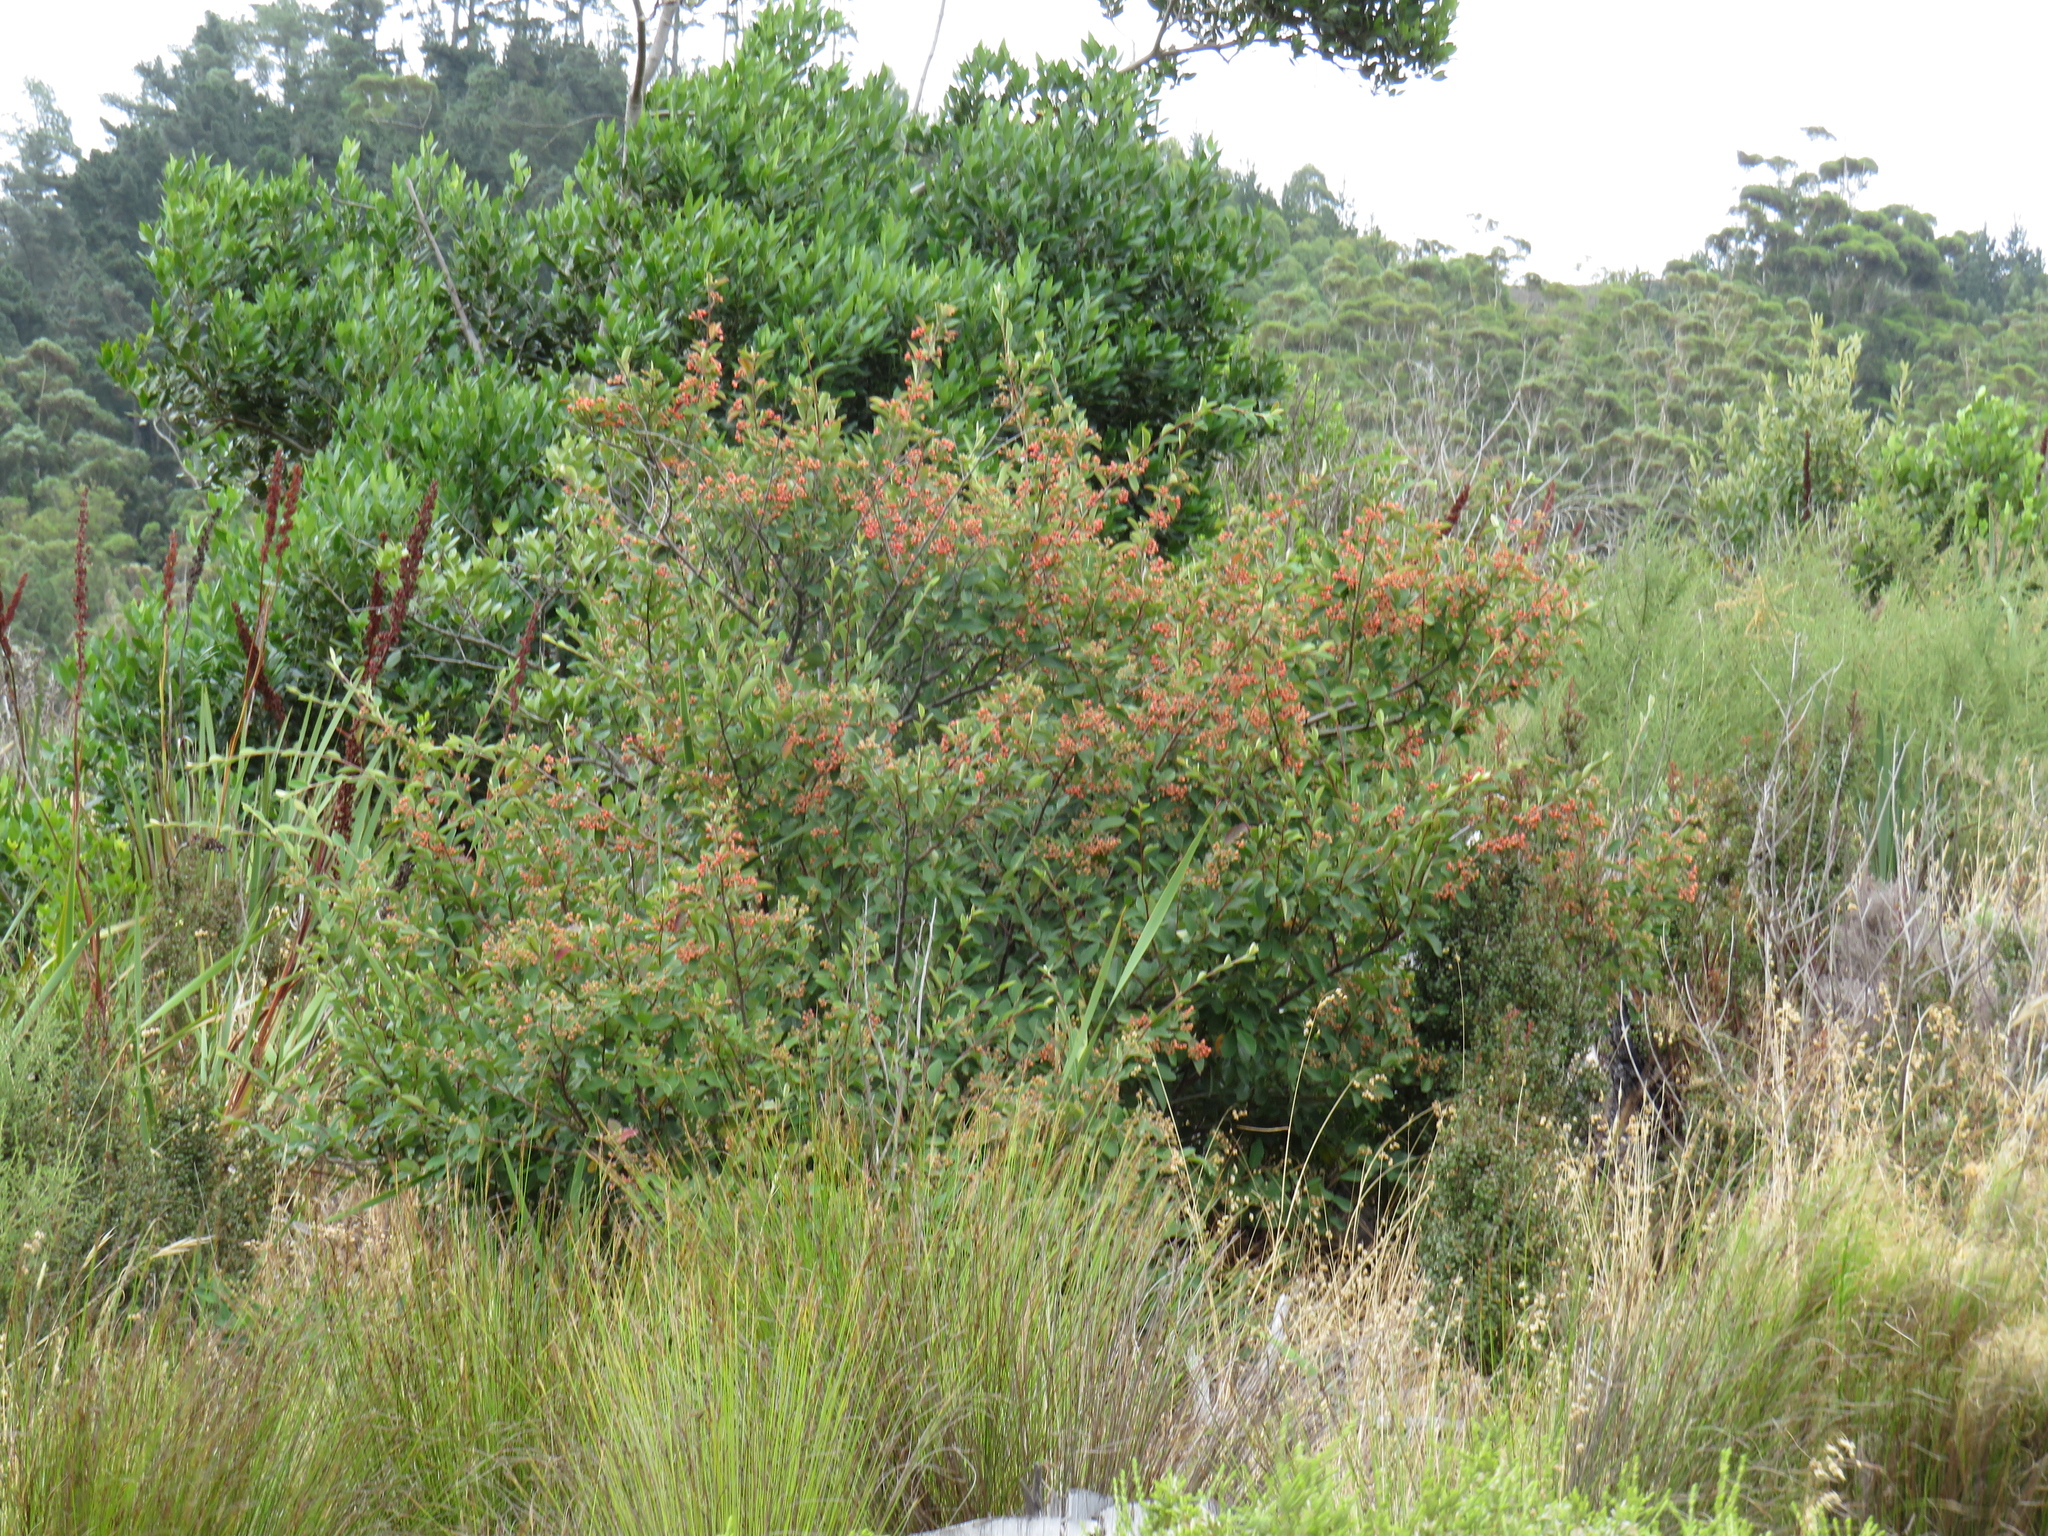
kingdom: Plantae
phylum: Tracheophyta
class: Magnoliopsida
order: Rosales
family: Rosaceae
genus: Cotoneaster
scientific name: Cotoneaster glaucophyllus
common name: Glaucous cotoneaster
